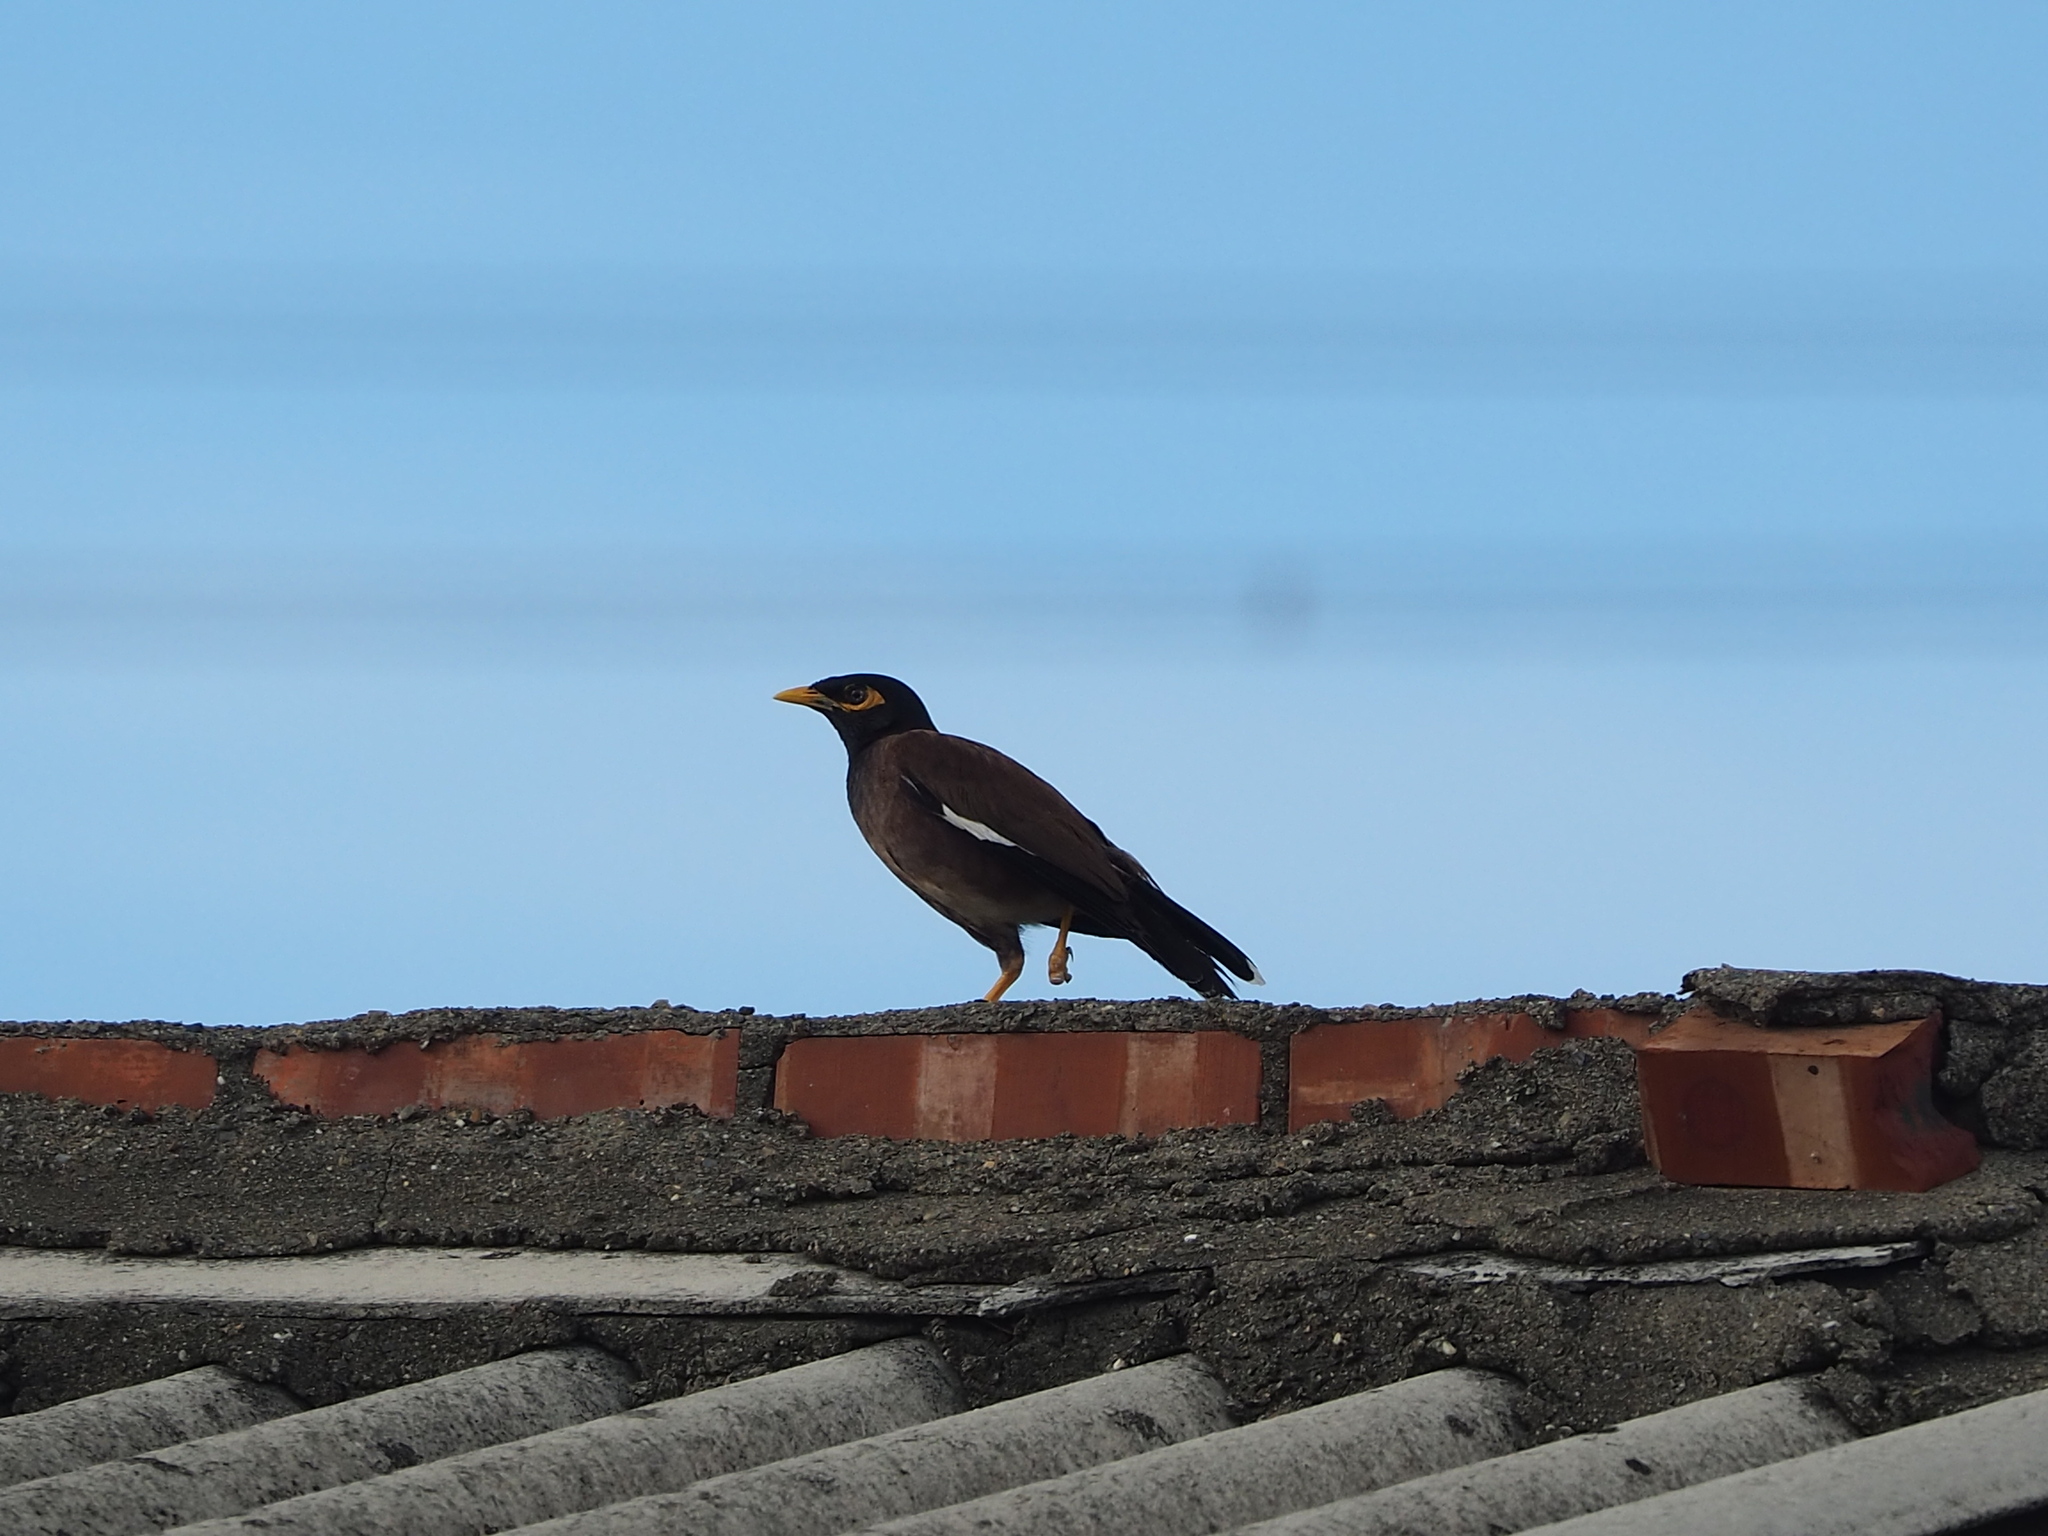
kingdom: Animalia
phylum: Chordata
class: Aves
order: Passeriformes
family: Sturnidae
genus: Acridotheres
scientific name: Acridotheres tristis
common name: Common myna
